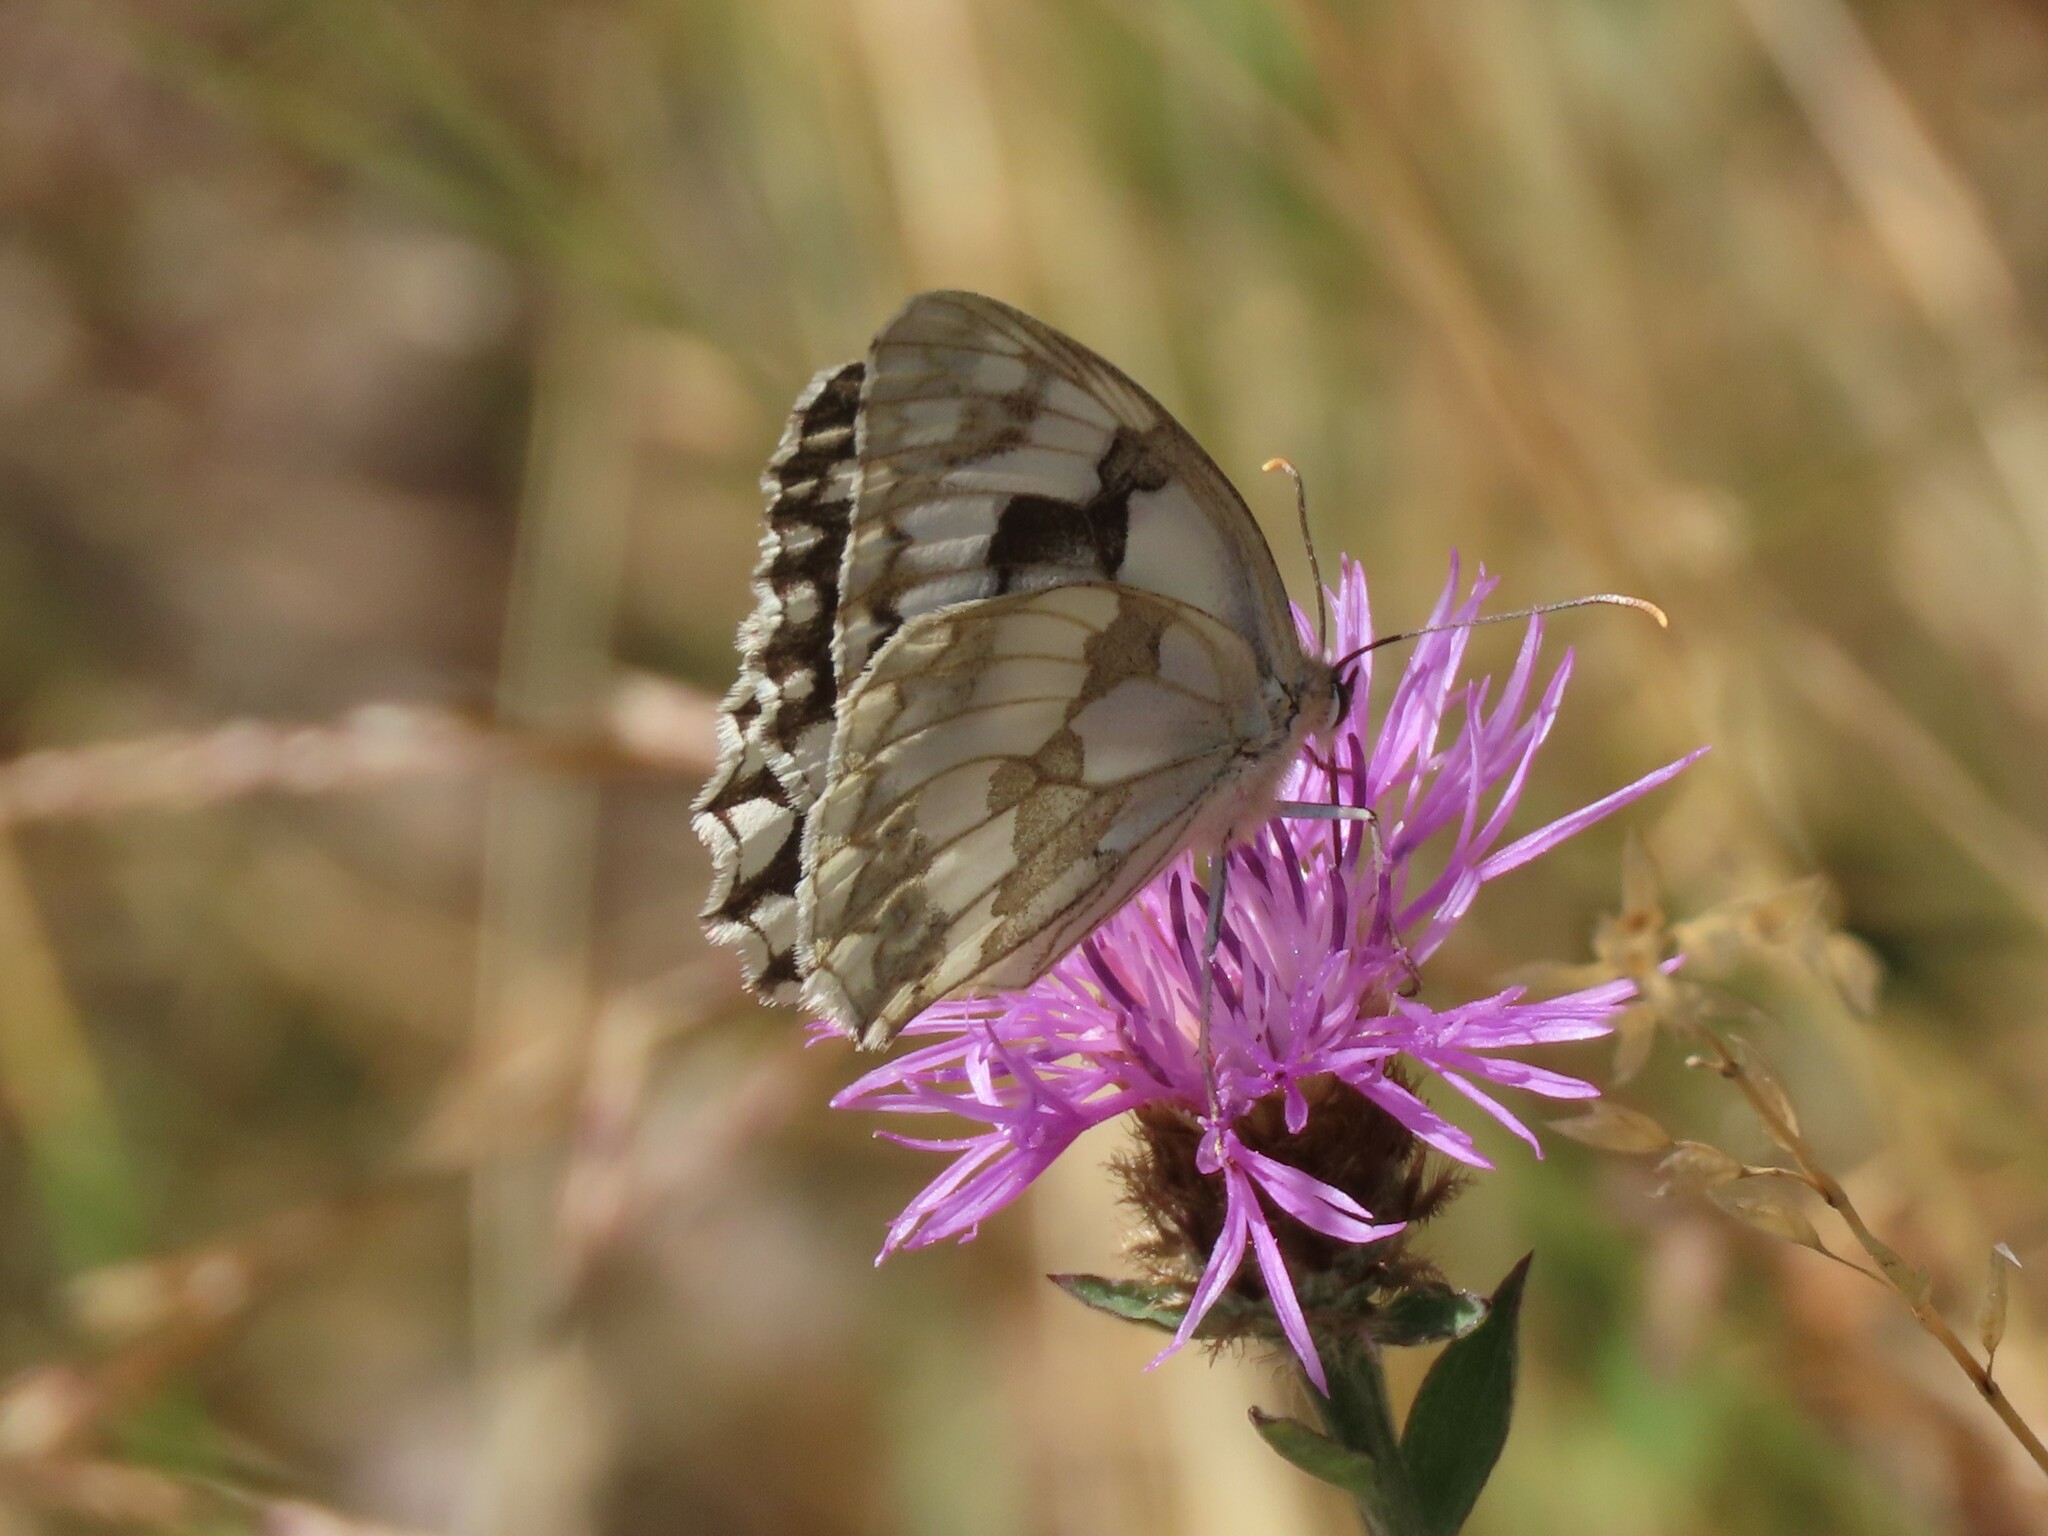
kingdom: Animalia
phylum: Arthropoda
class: Insecta
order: Lepidoptera
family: Nymphalidae
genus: Melanargia
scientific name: Melanargia lachesis
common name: Iberian marbled white
